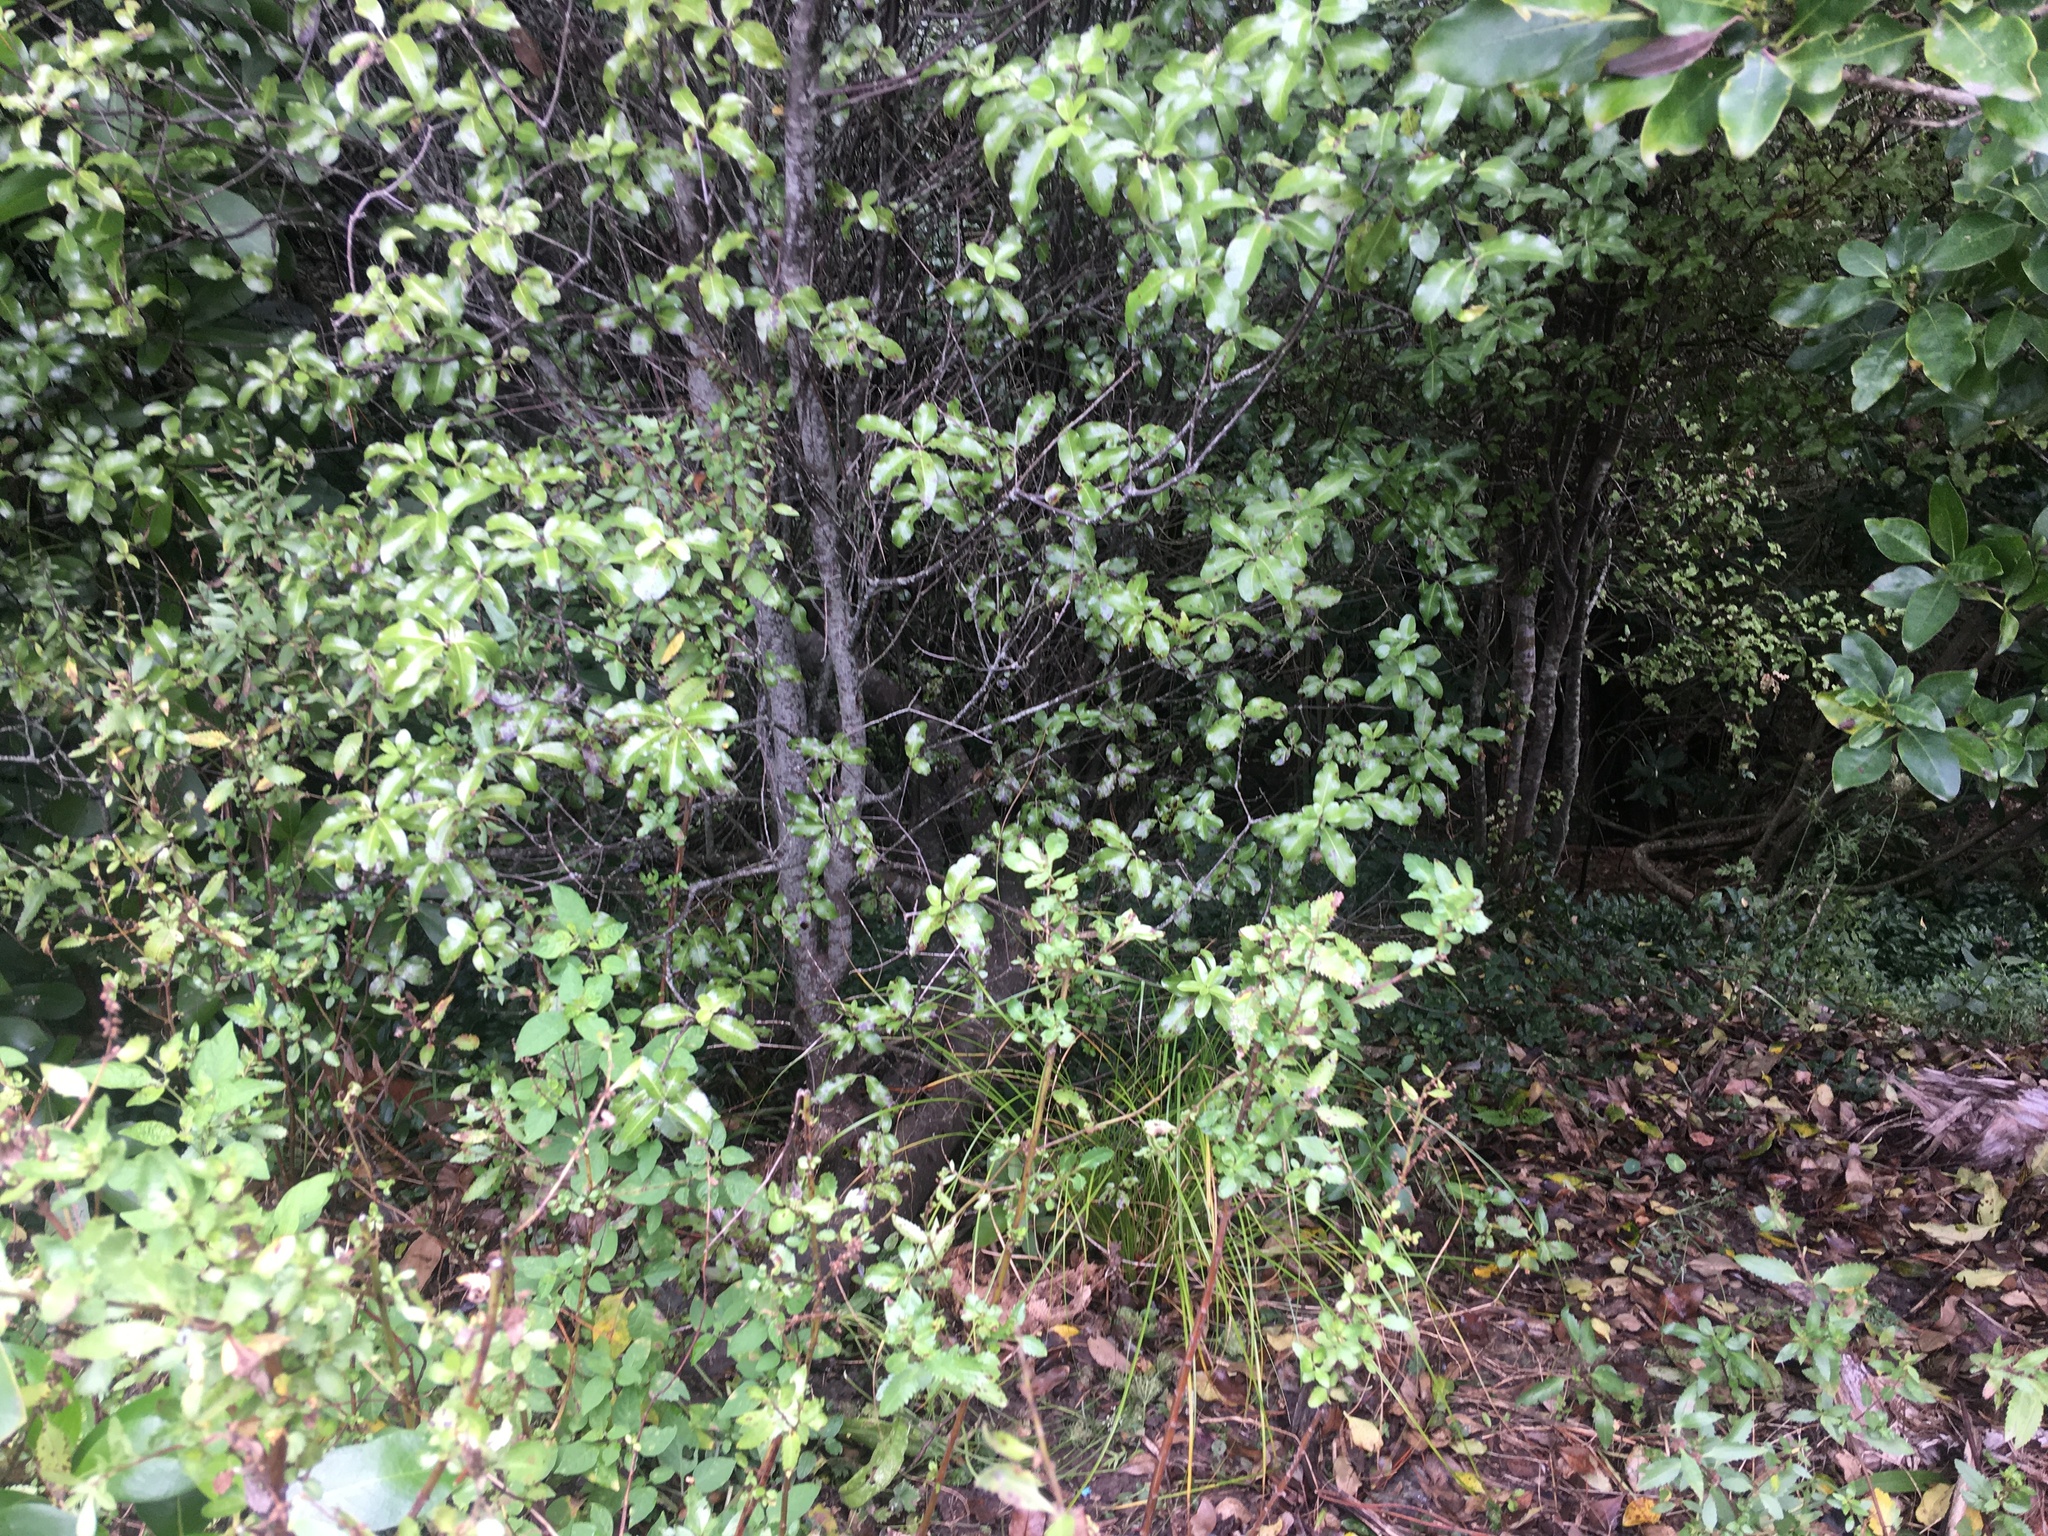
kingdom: Plantae
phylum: Tracheophyta
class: Magnoliopsida
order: Apiales
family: Pittosporaceae
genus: Pittosporum
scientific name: Pittosporum tenuifolium
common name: Kohuhu
